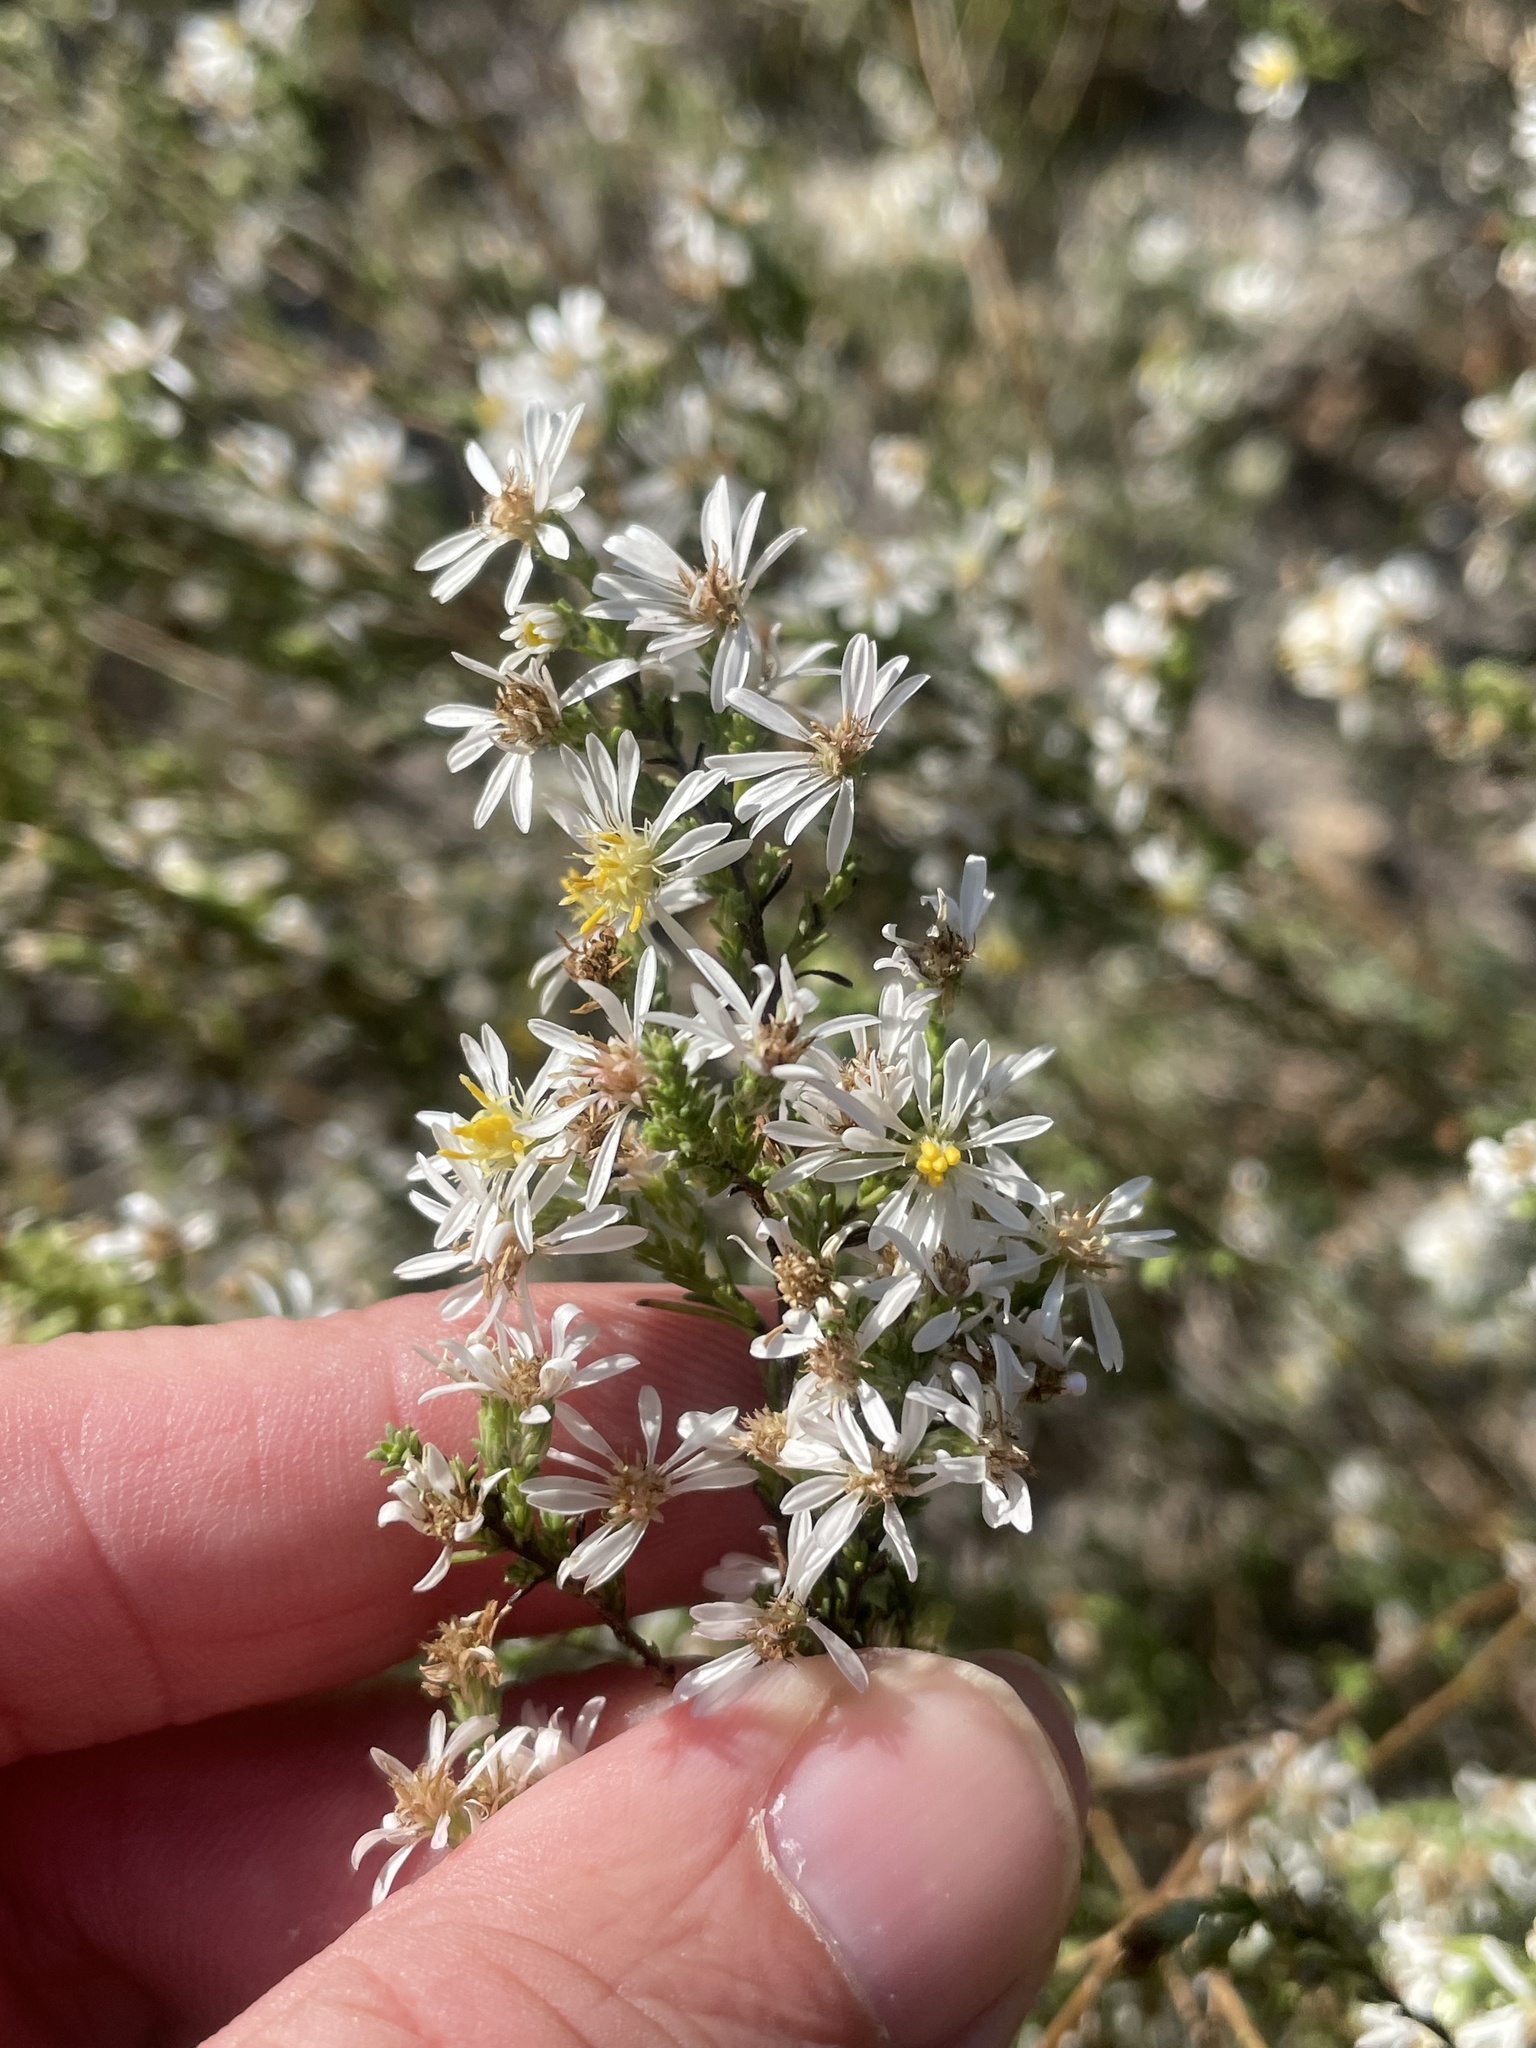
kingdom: Plantae
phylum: Tracheophyta
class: Magnoliopsida
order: Asterales
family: Asteraceae
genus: Symphyotrichum
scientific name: Symphyotrichum ericoides
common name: Heath aster
